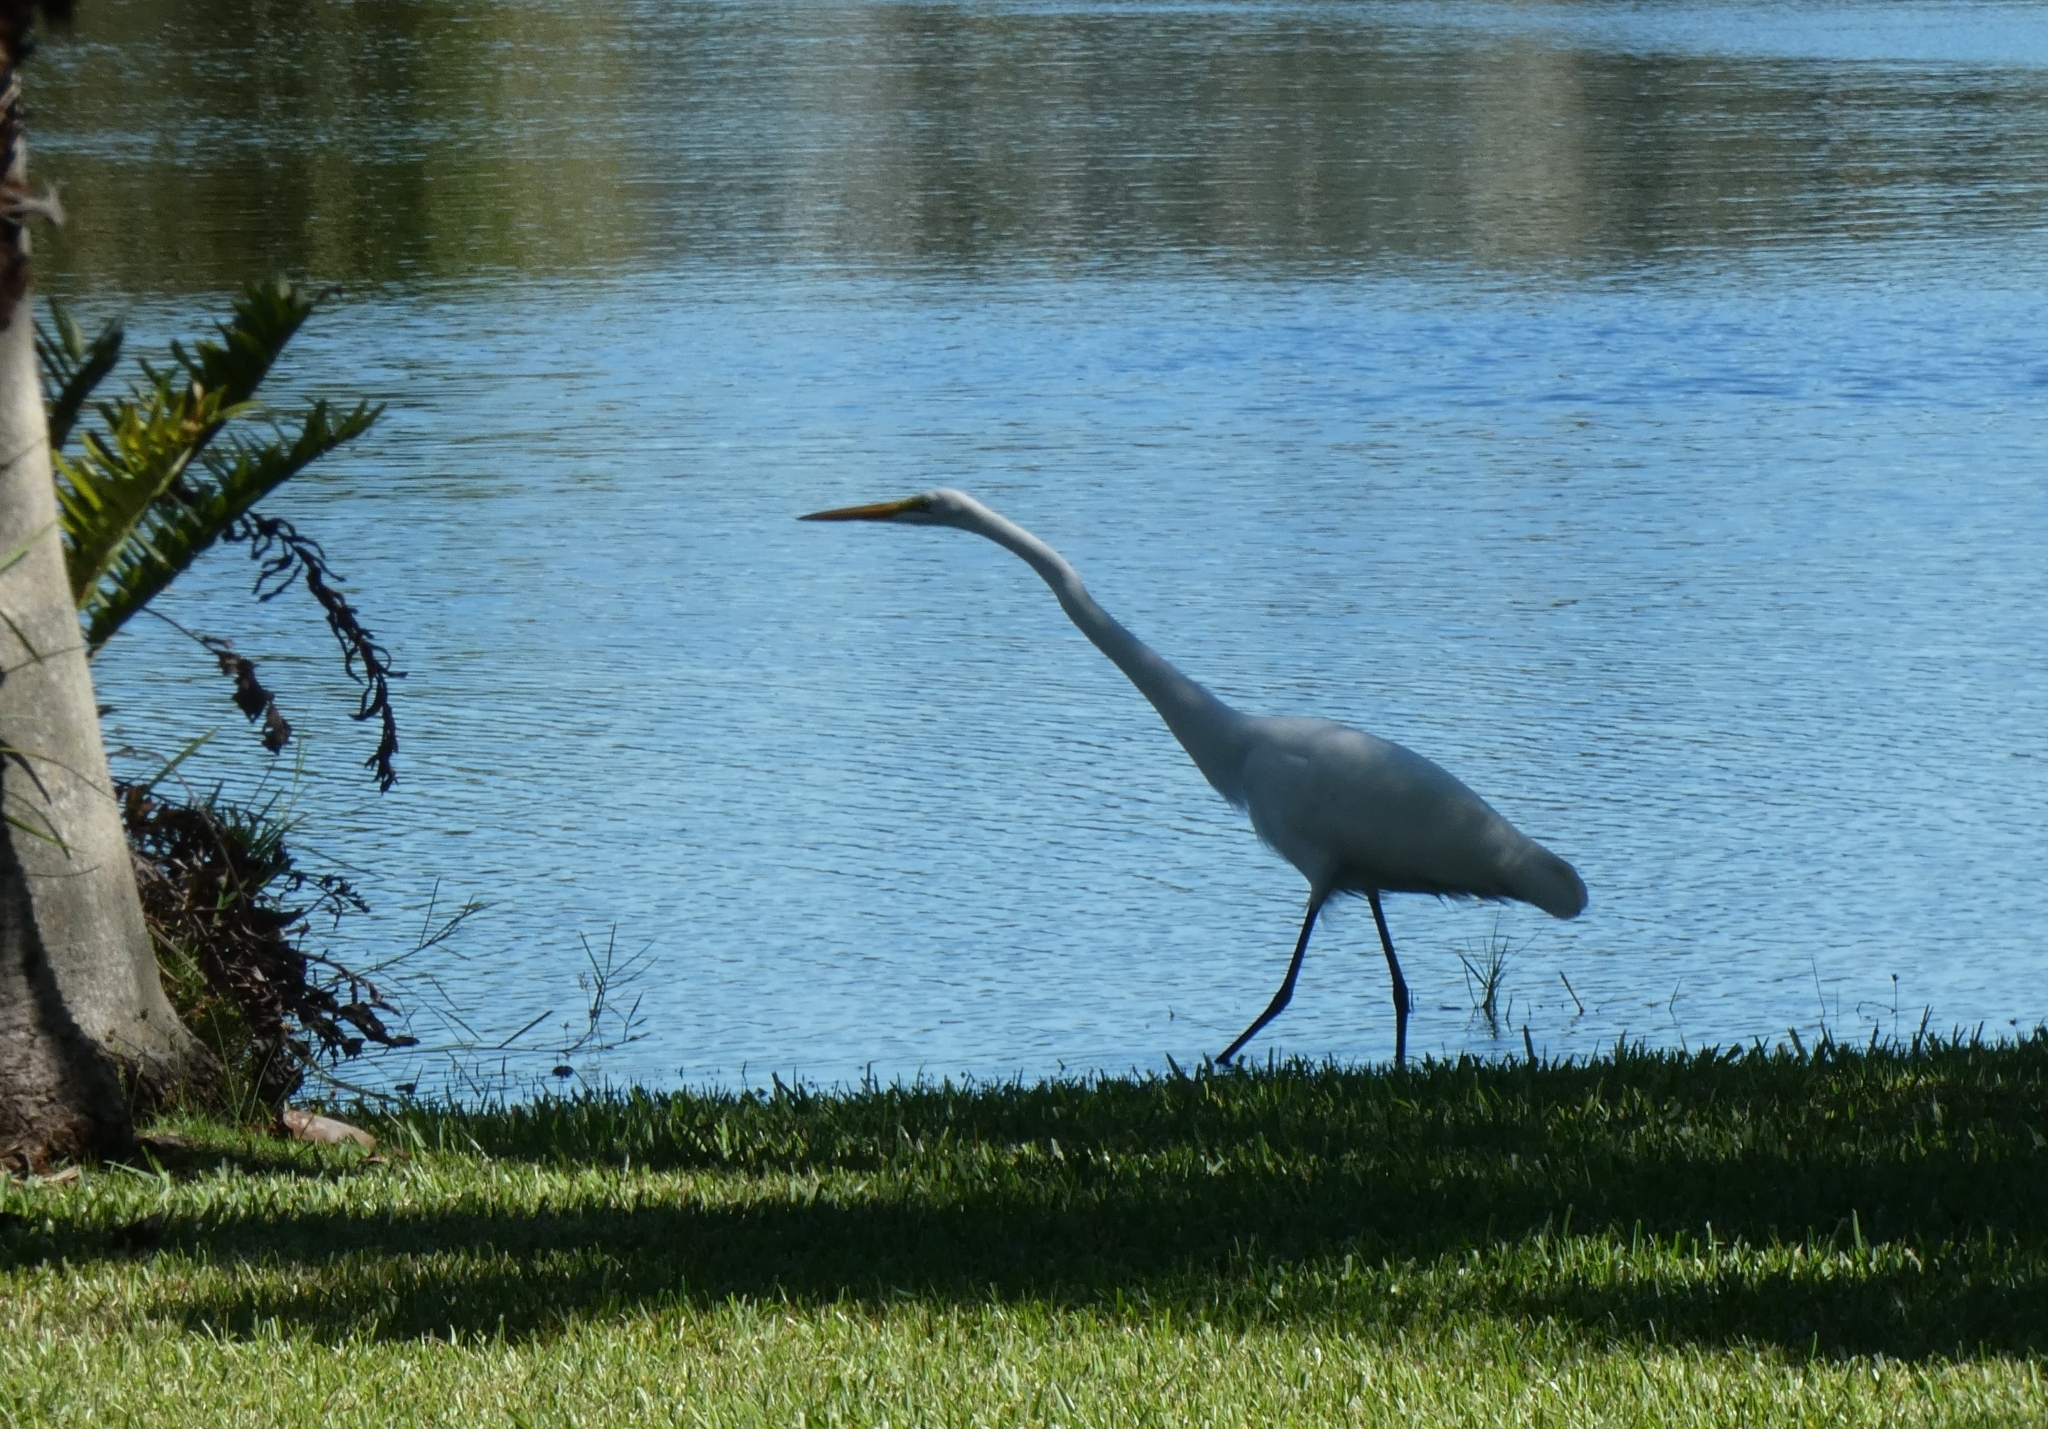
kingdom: Animalia
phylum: Chordata
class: Aves
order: Suliformes
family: Anhingidae
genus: Anhinga
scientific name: Anhinga anhinga
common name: Anhinga
